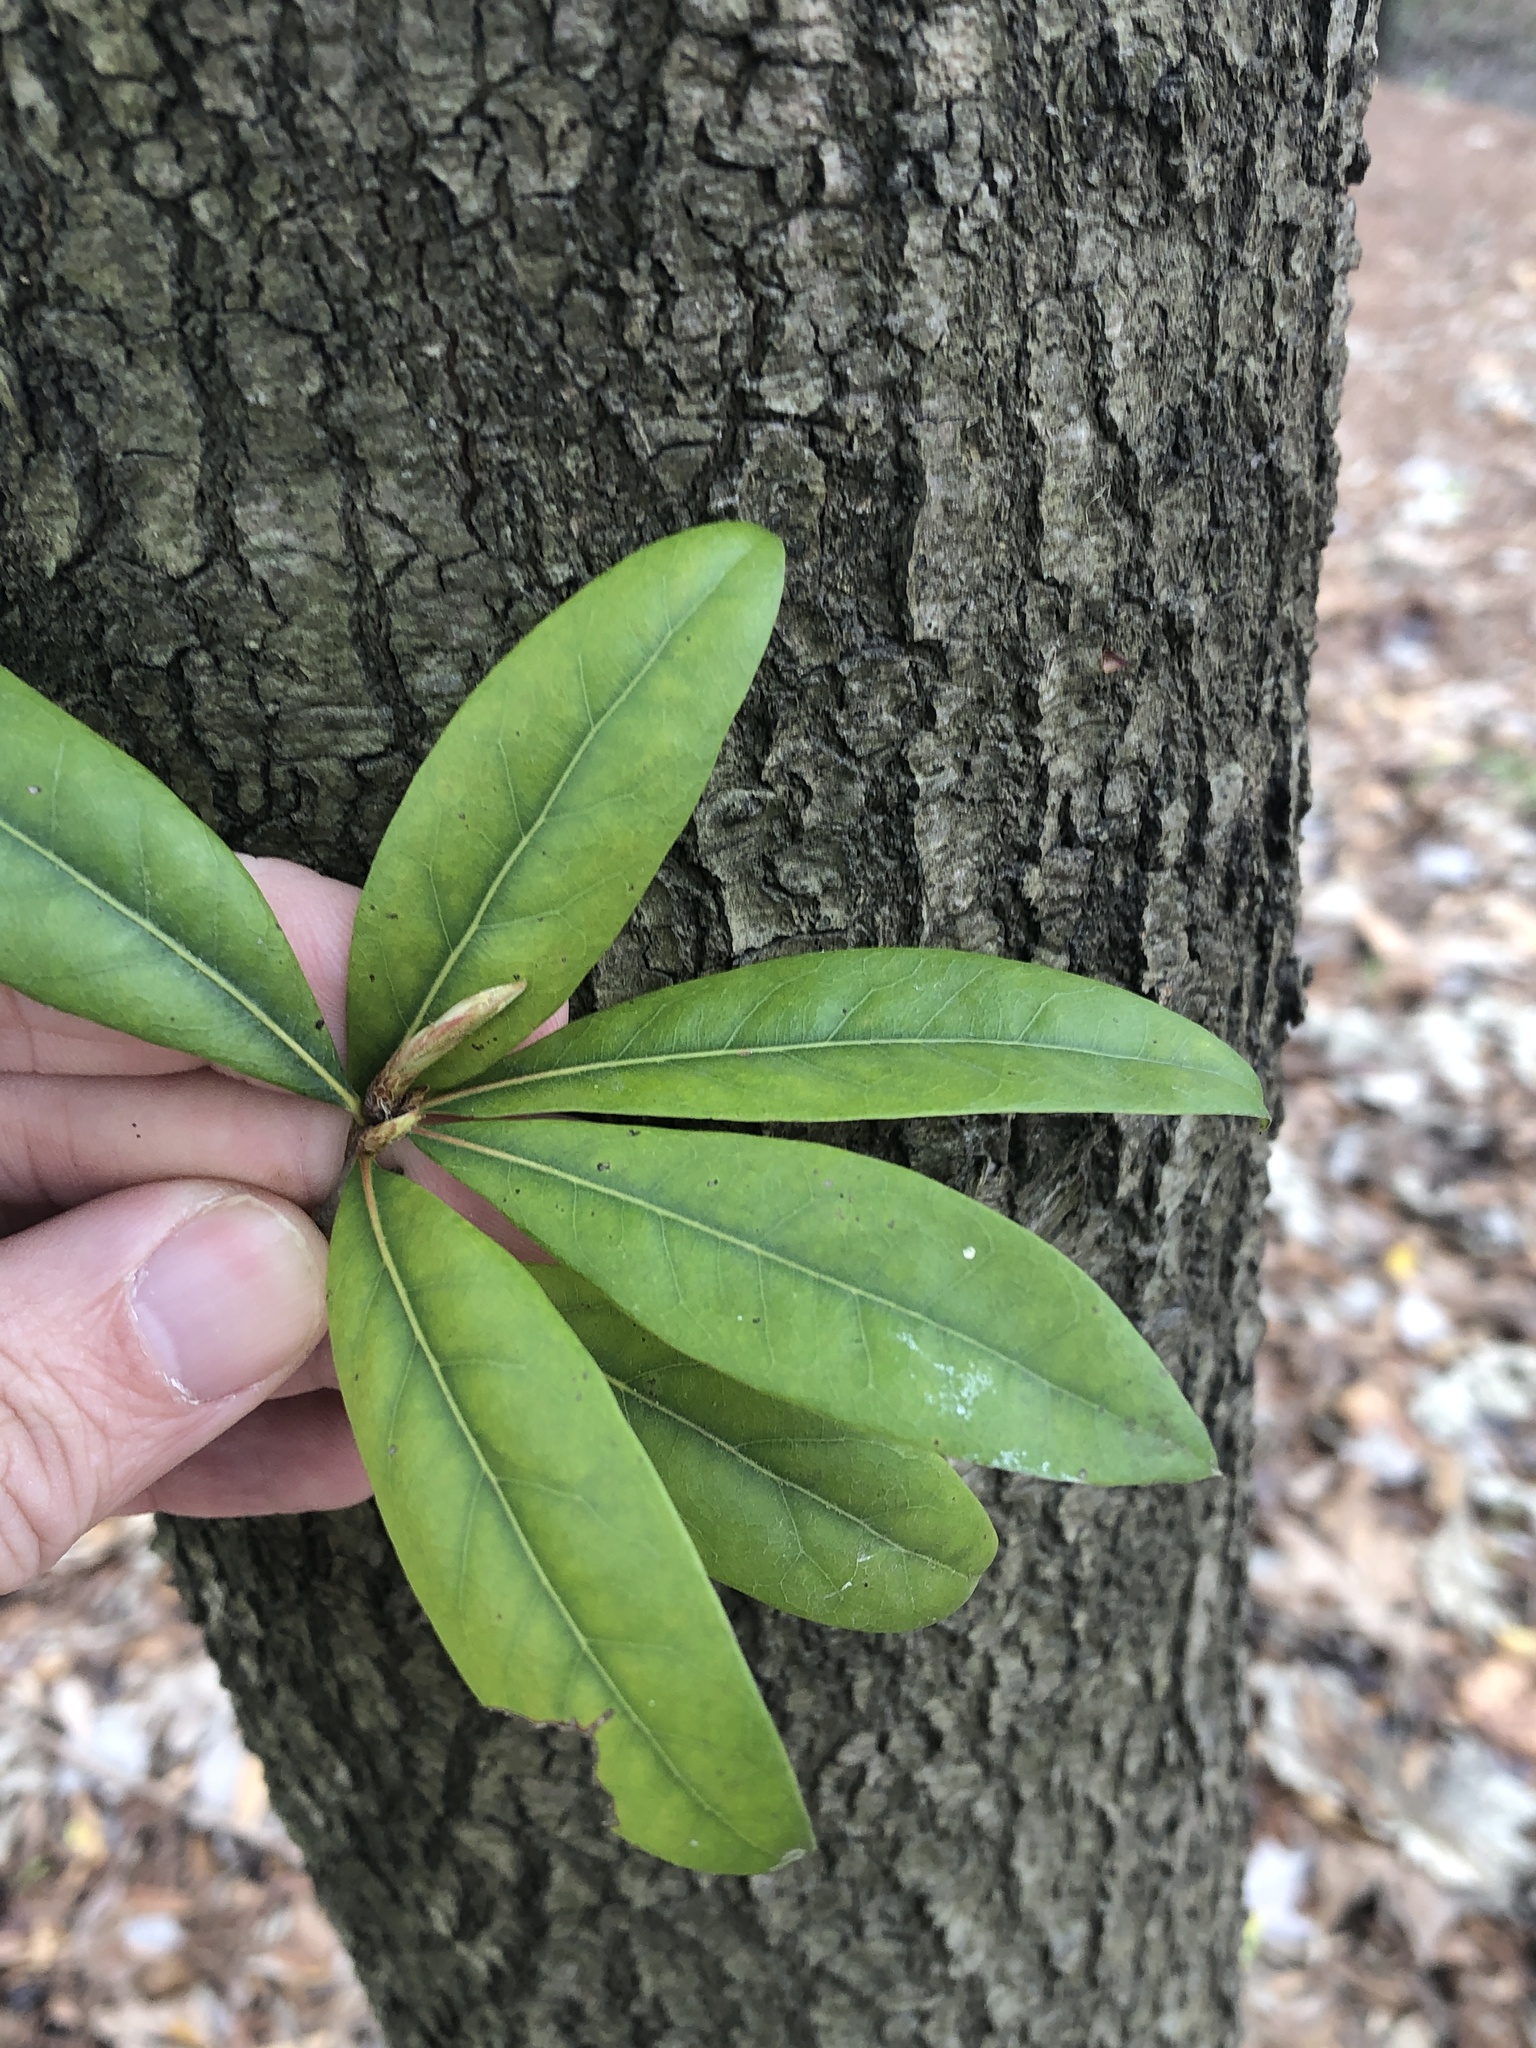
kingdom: Plantae
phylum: Tracheophyta
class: Magnoliopsida
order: Laurales
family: Lauraceae
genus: Cinnamomum
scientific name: Cinnamomum camphora
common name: Camphortree
